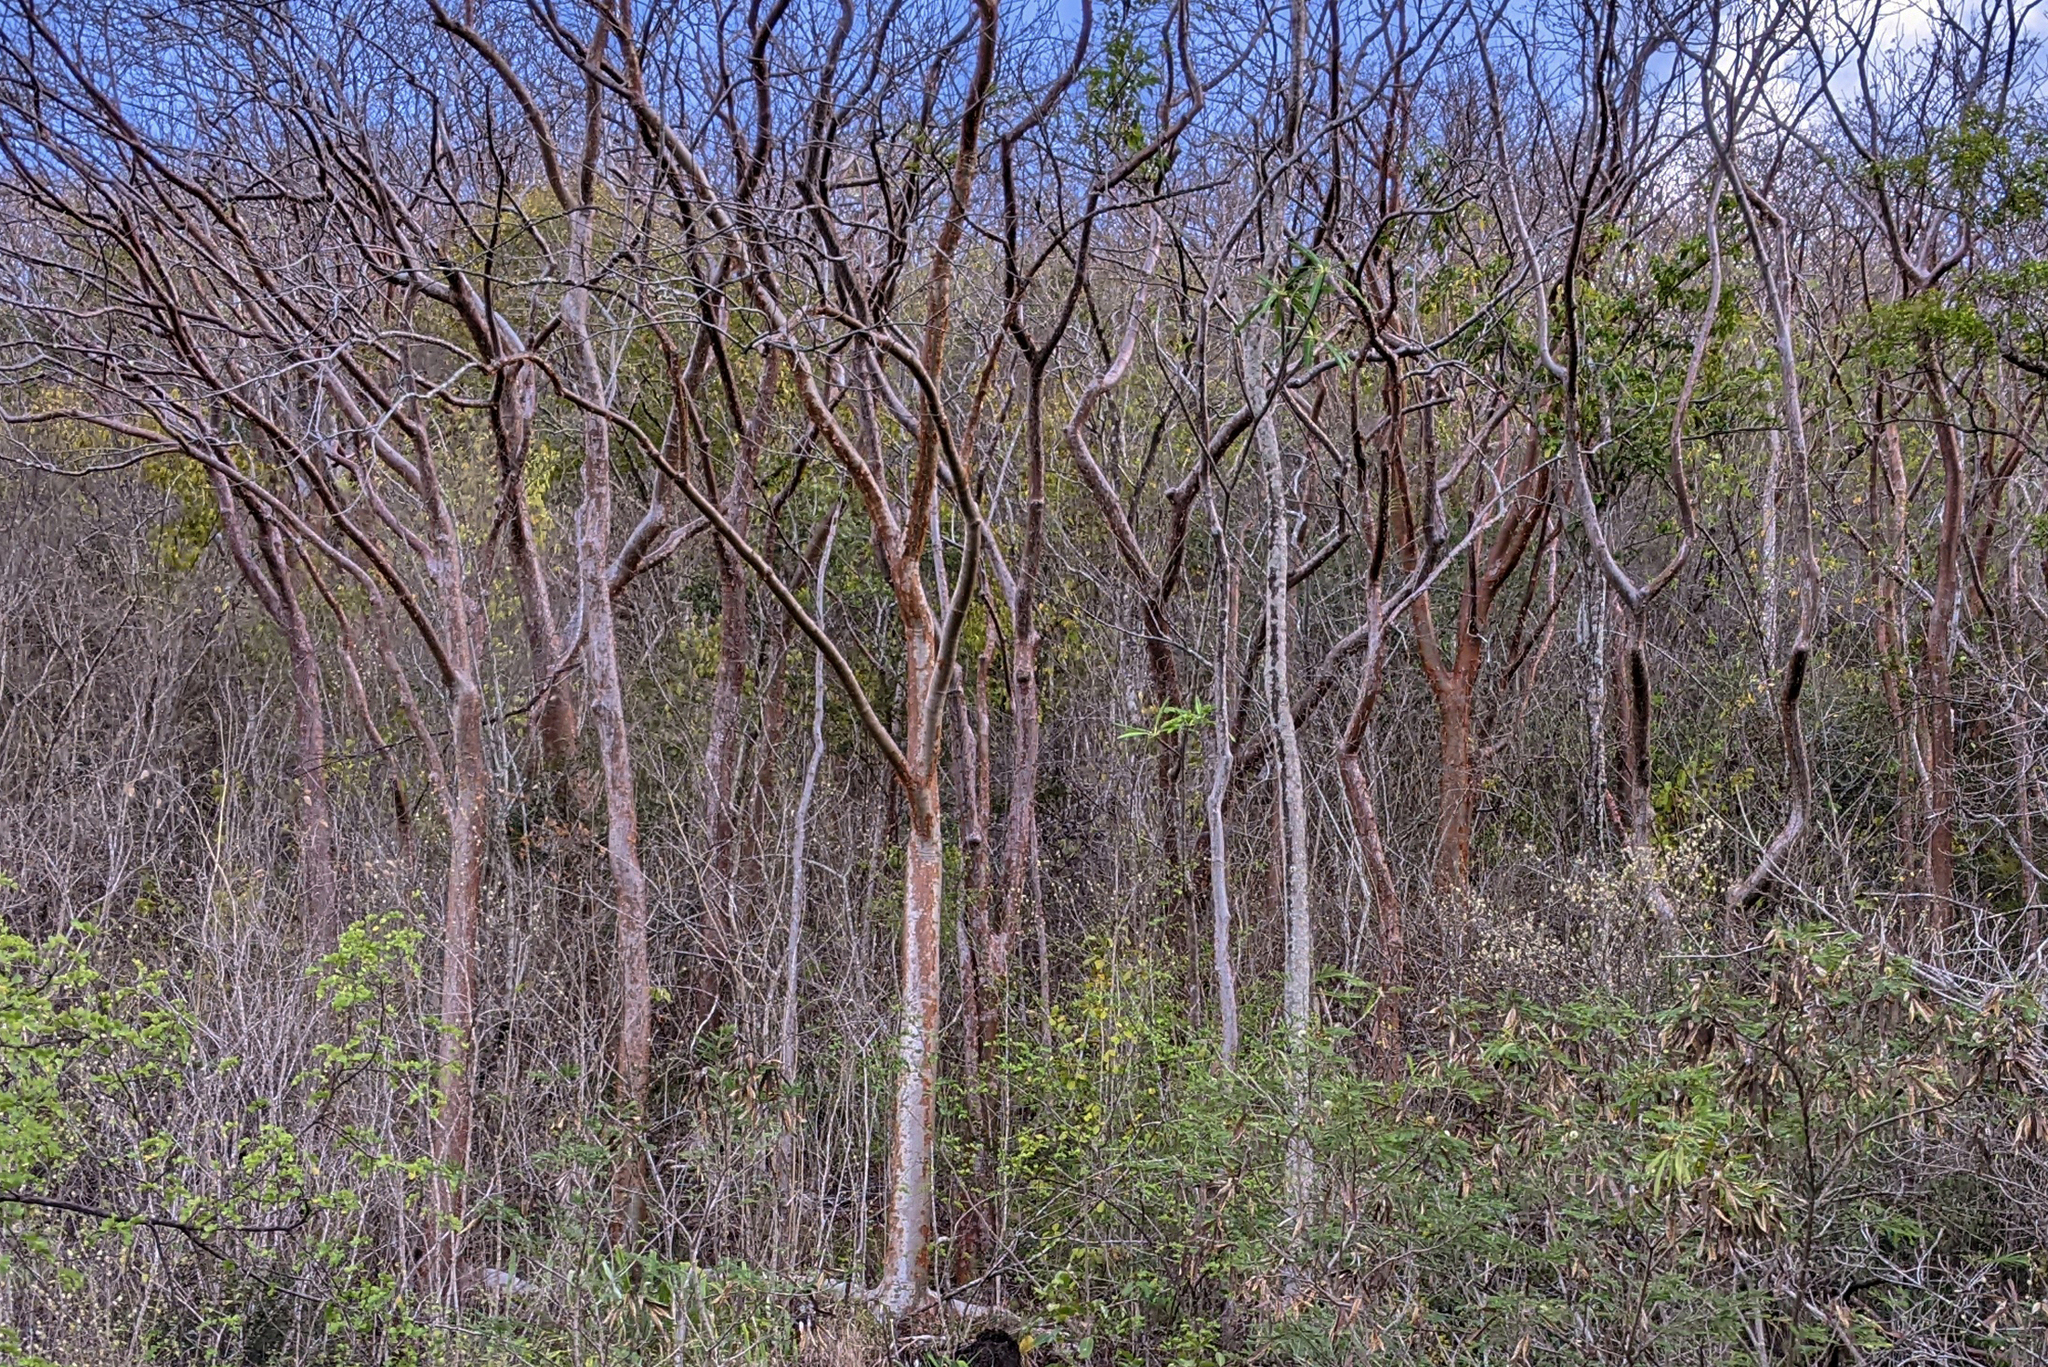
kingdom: Plantae
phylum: Tracheophyta
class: Magnoliopsida
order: Sapindales
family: Burseraceae
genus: Bursera
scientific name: Bursera simaruba
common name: Turpentine tree
